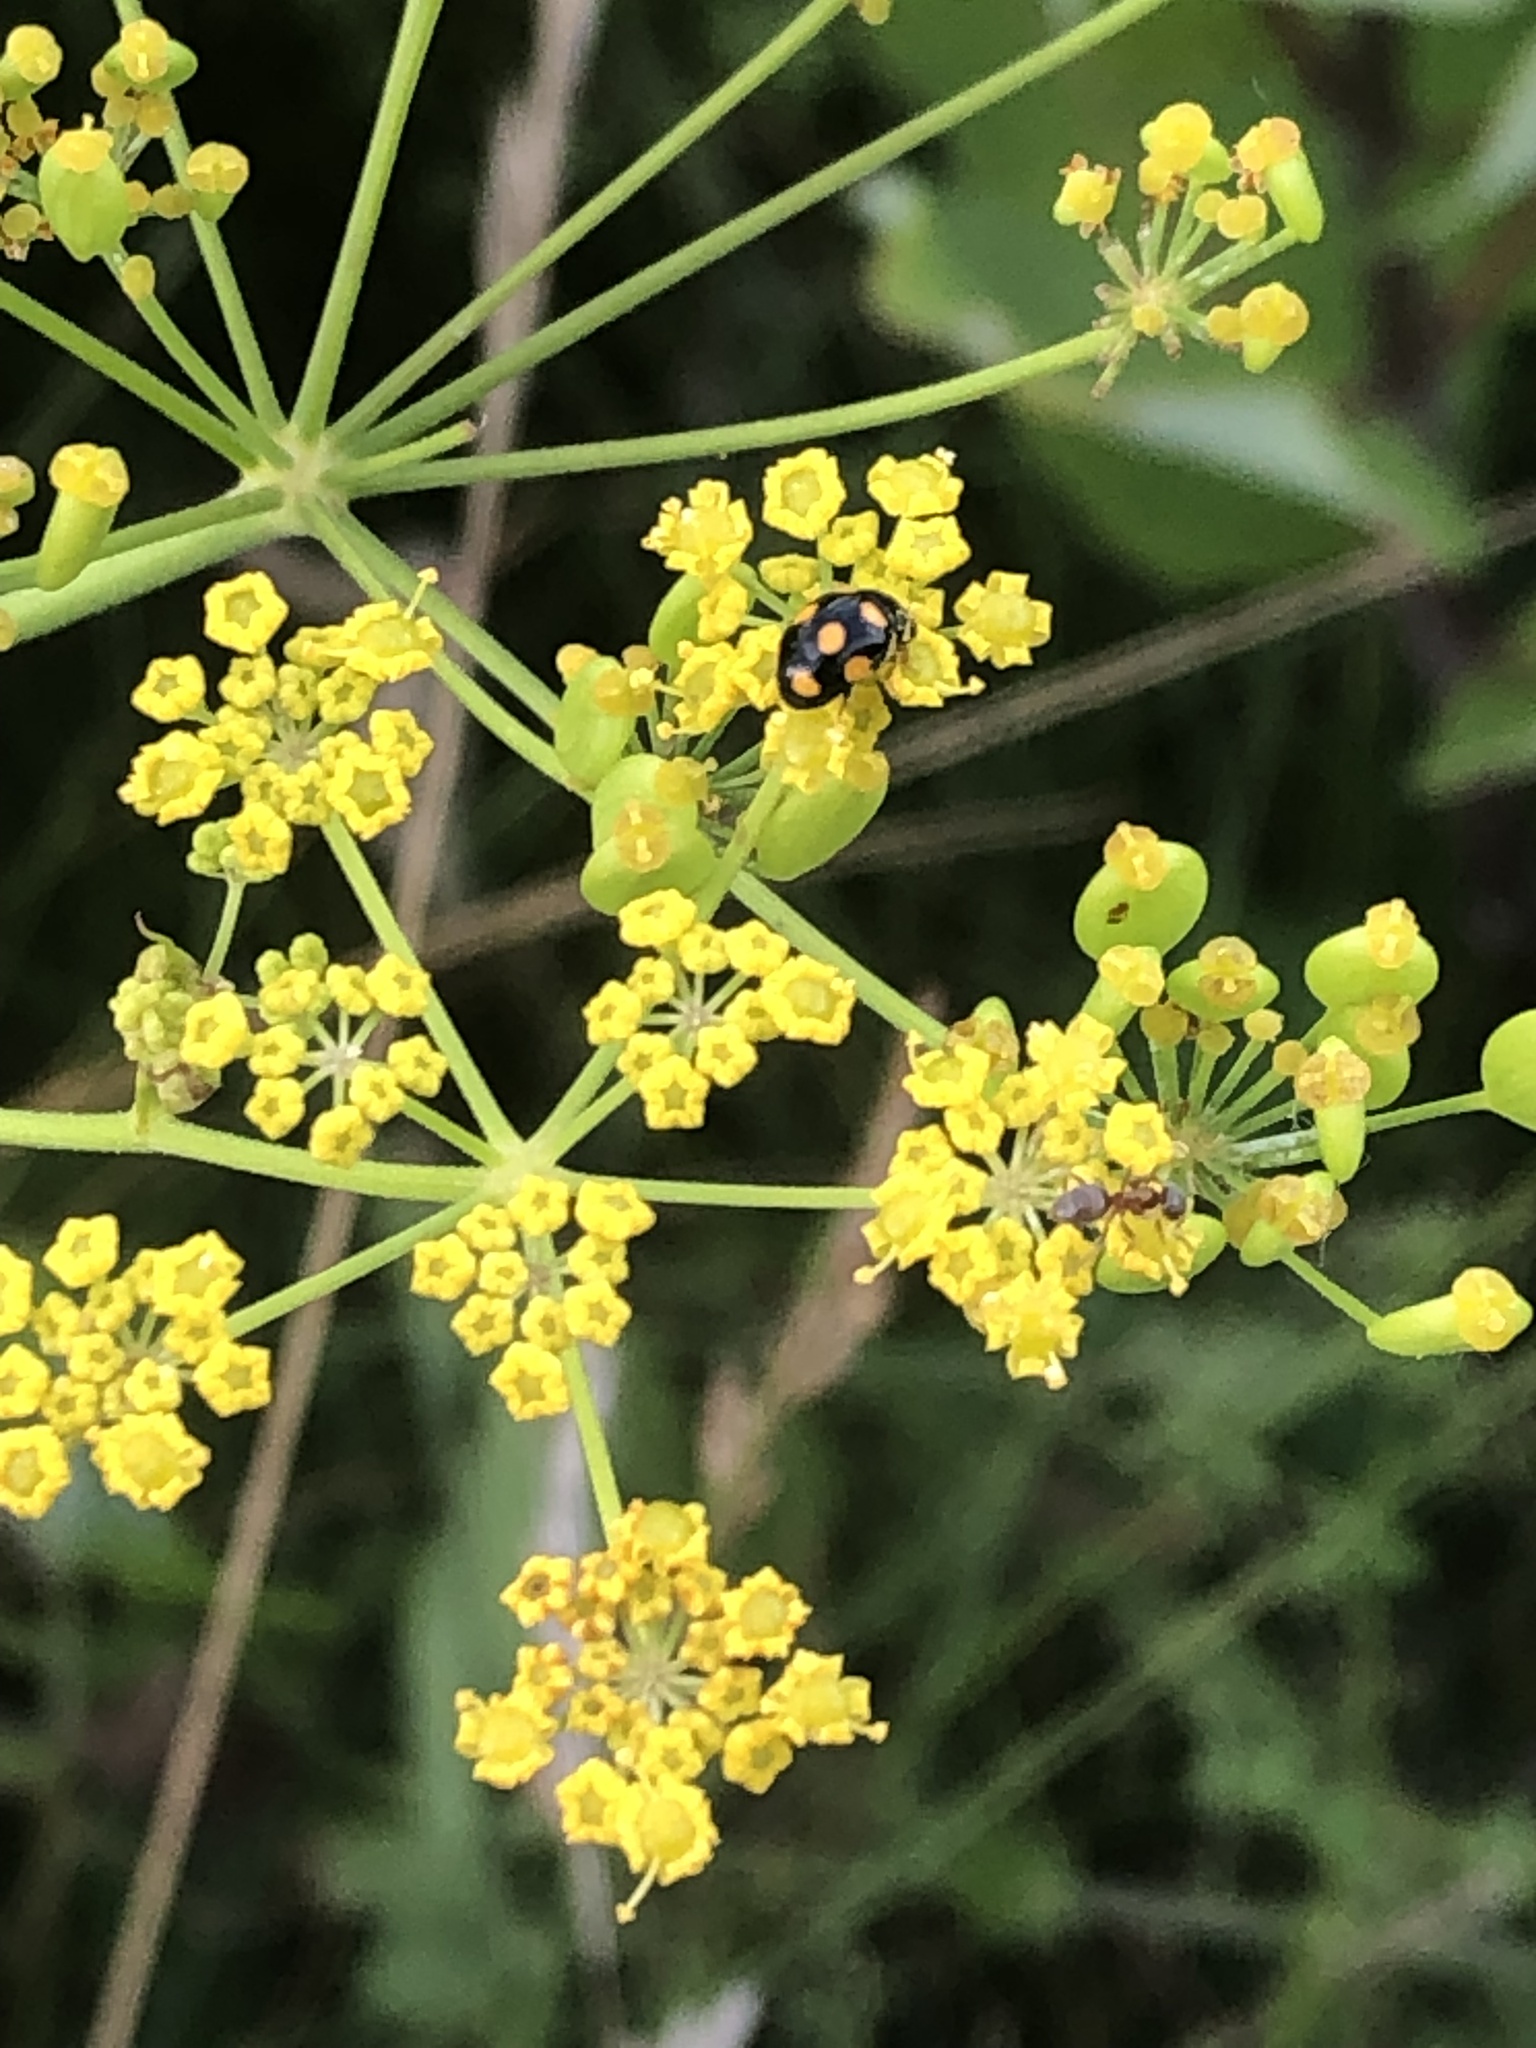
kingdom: Animalia
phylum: Arthropoda
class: Insecta
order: Coleoptera
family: Coccinellidae
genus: Brachiacantha
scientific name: Brachiacantha ursina
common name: Ursine spurleg lady beetle
